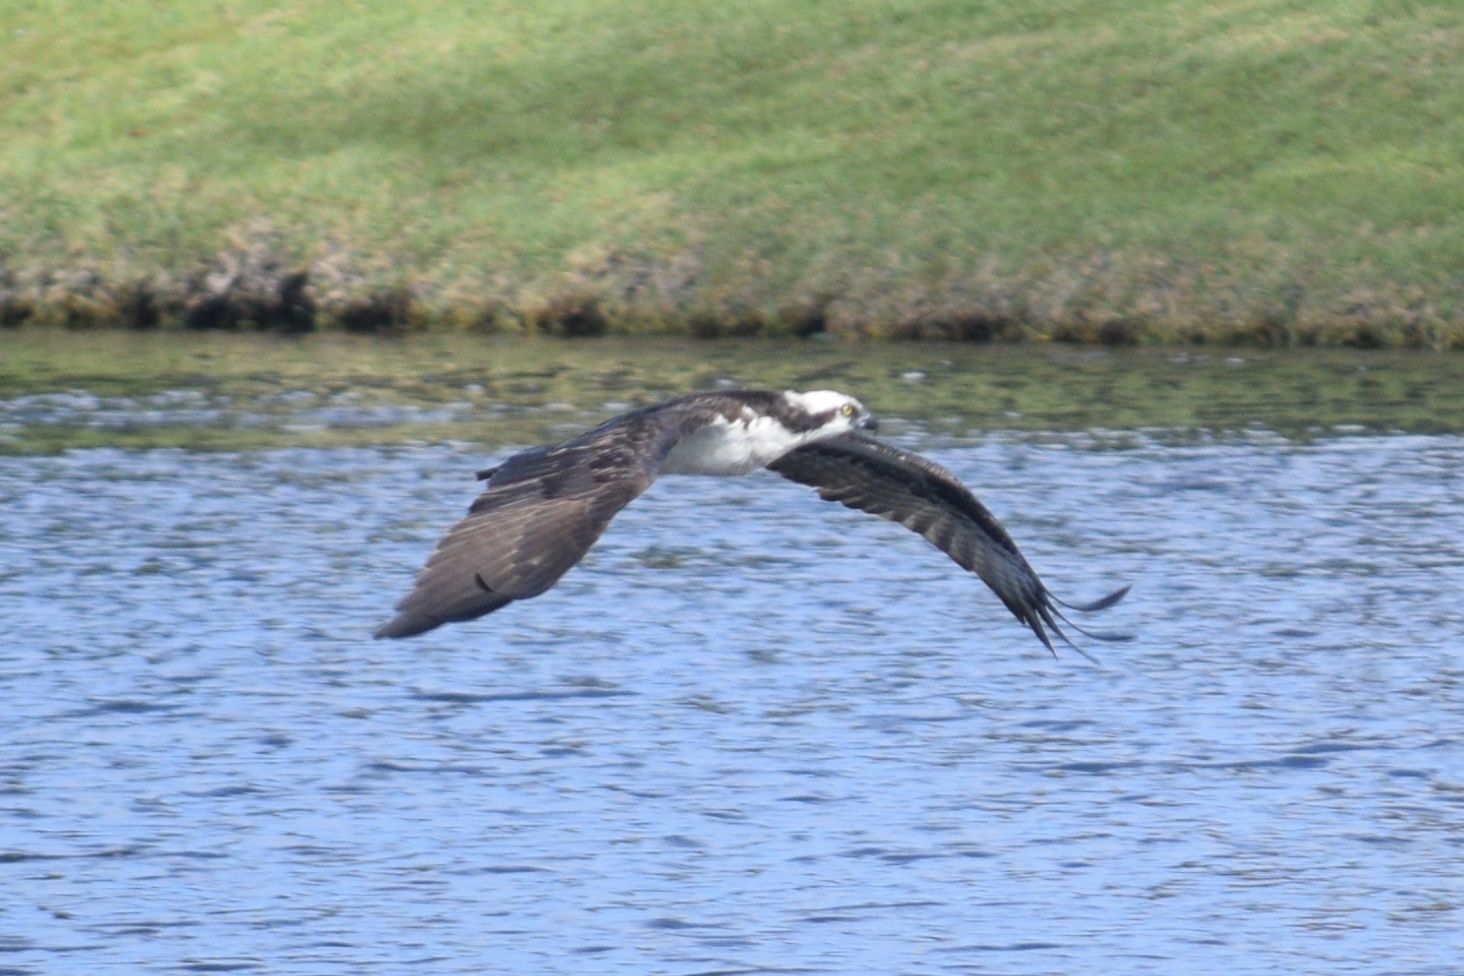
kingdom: Animalia
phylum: Chordata
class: Aves
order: Accipitriformes
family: Pandionidae
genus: Pandion
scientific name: Pandion haliaetus
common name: Osprey
